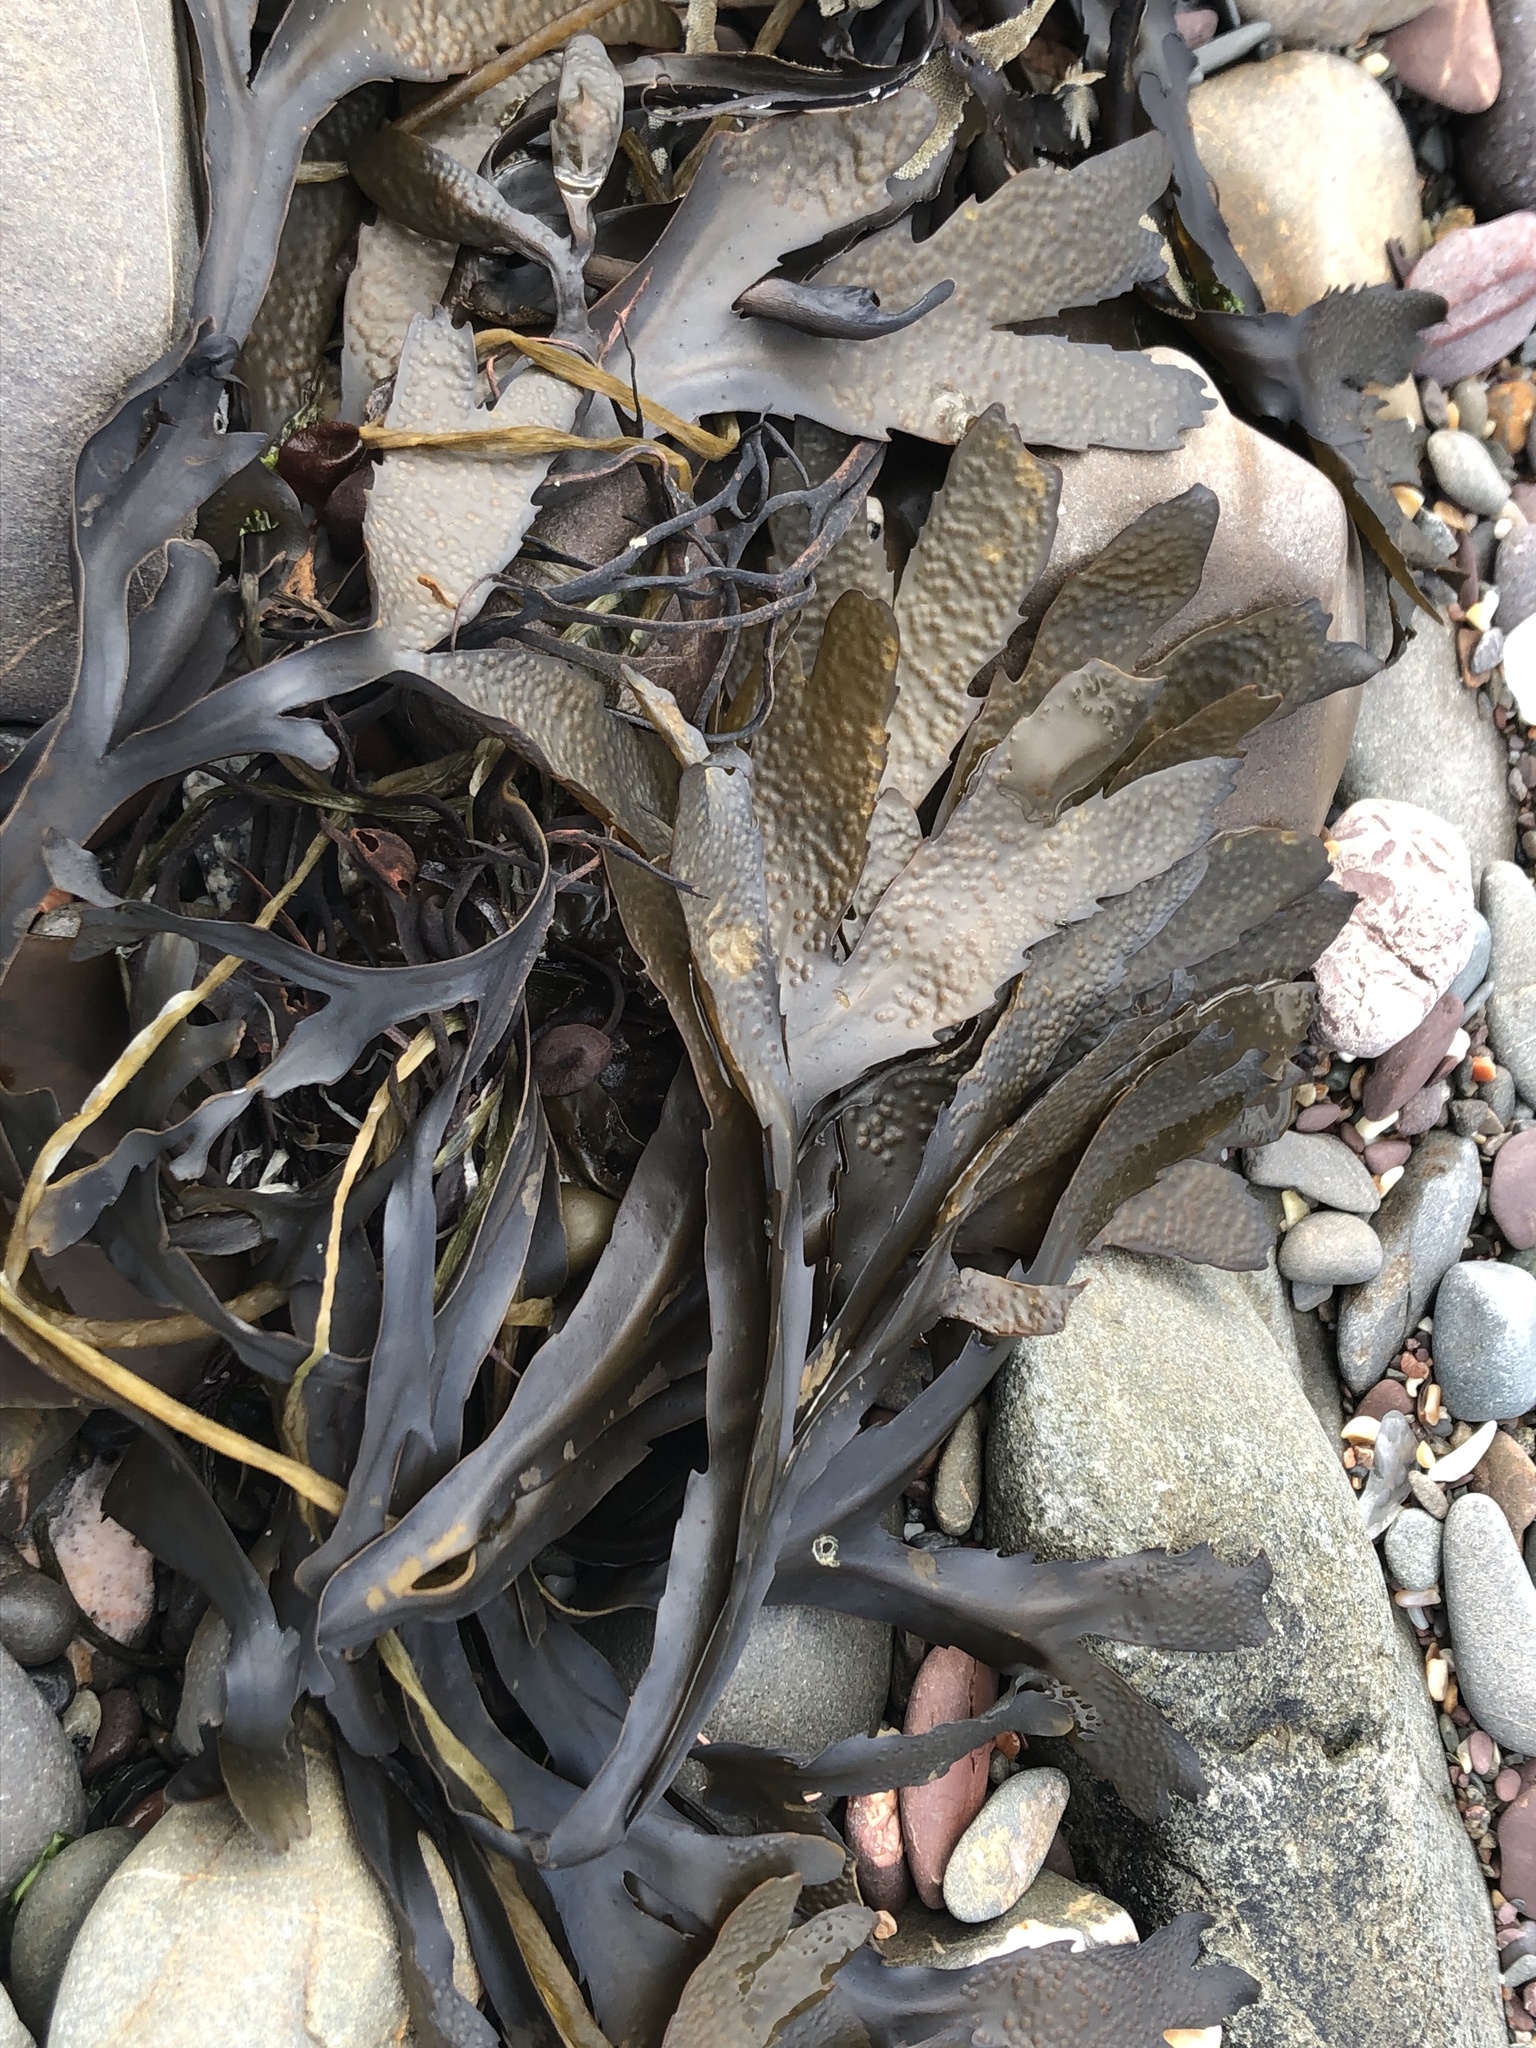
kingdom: Chromista
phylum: Ochrophyta
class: Phaeophyceae
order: Fucales
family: Fucaceae
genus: Fucus
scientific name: Fucus serratus
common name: Toothed wrack
